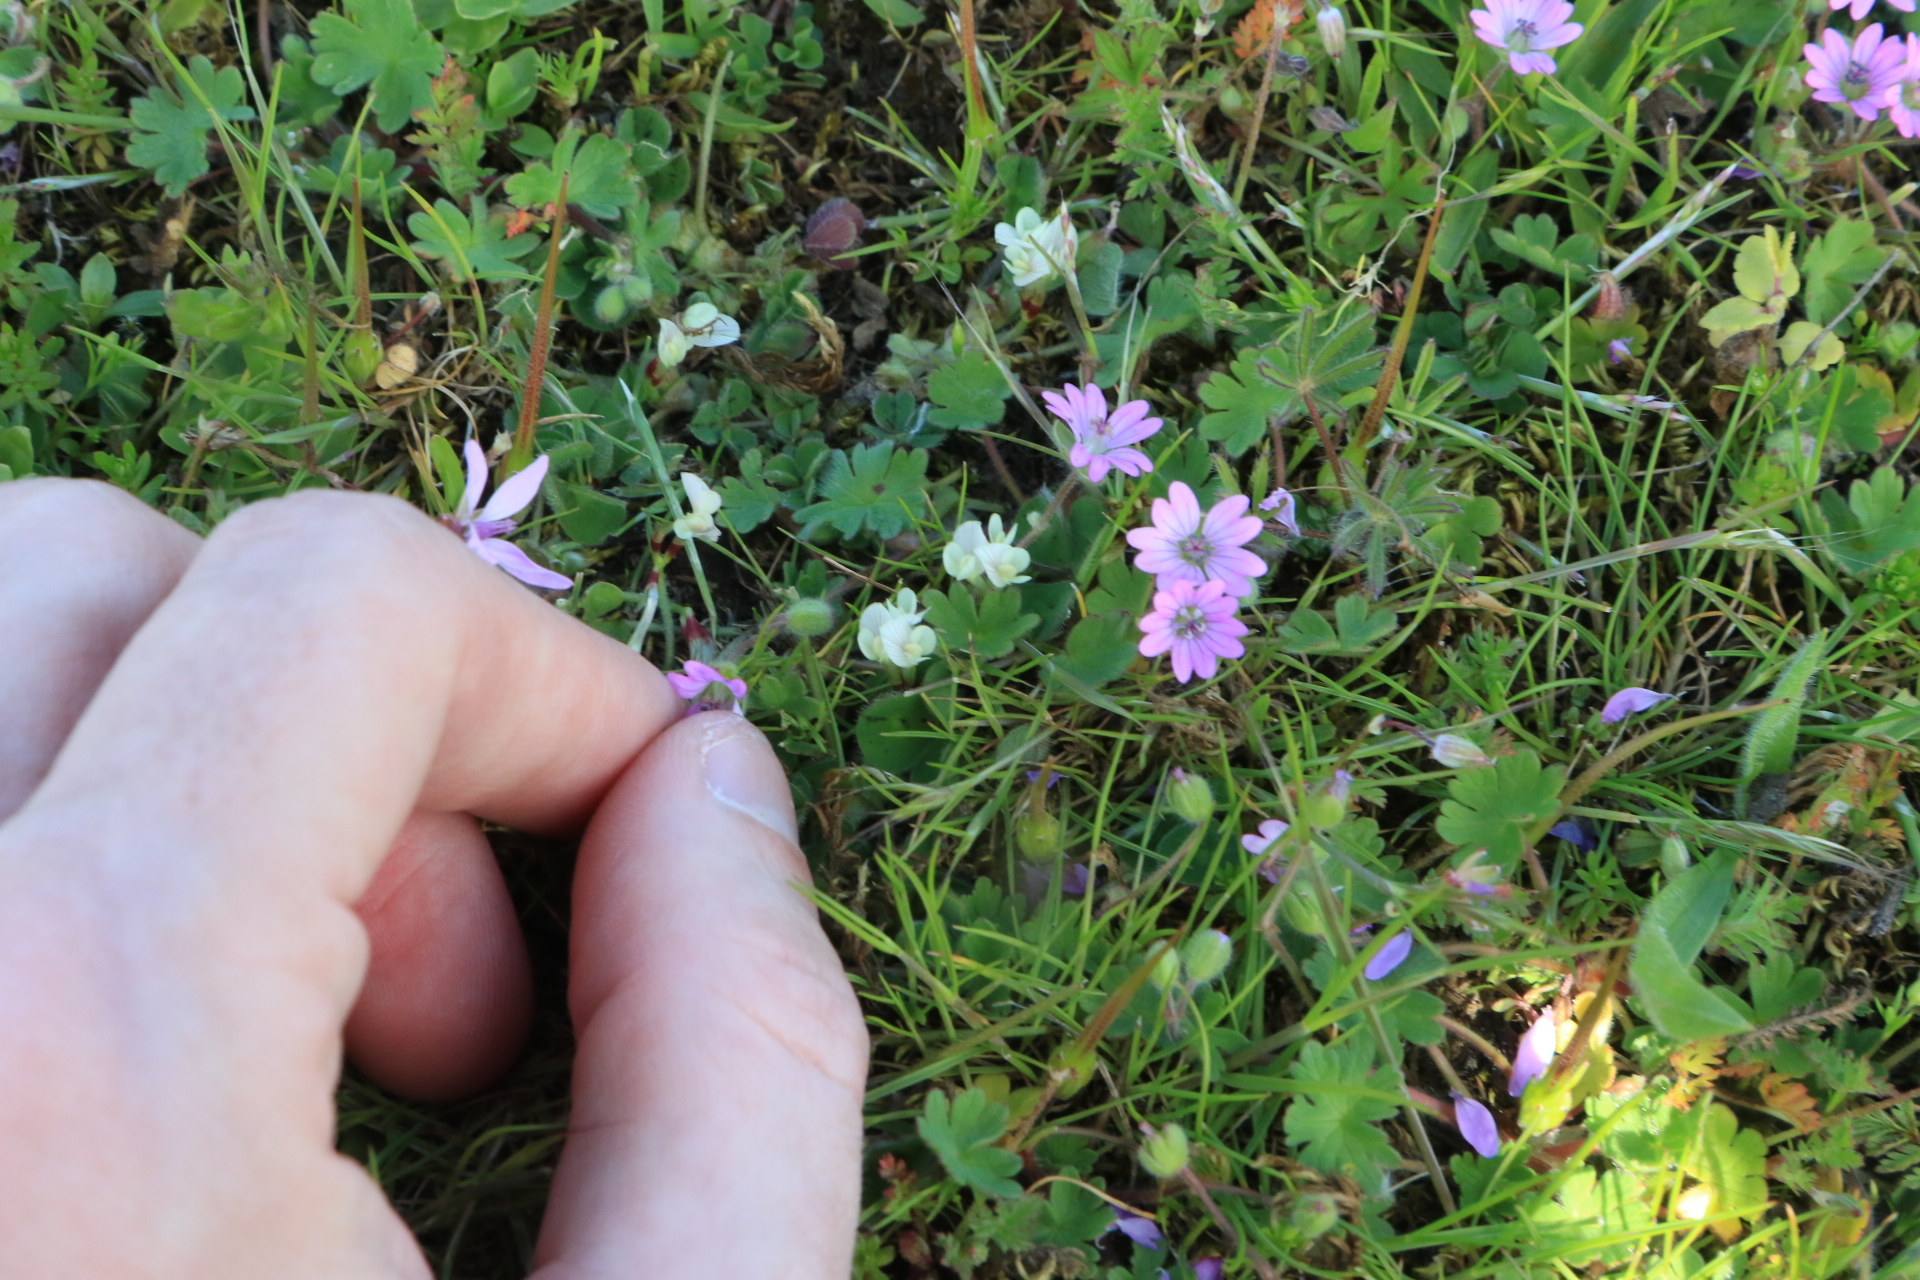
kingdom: Plantae
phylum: Tracheophyta
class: Magnoliopsida
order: Fabales
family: Fabaceae
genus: Trifolium
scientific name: Trifolium subterraneum
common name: Subterranean clover
